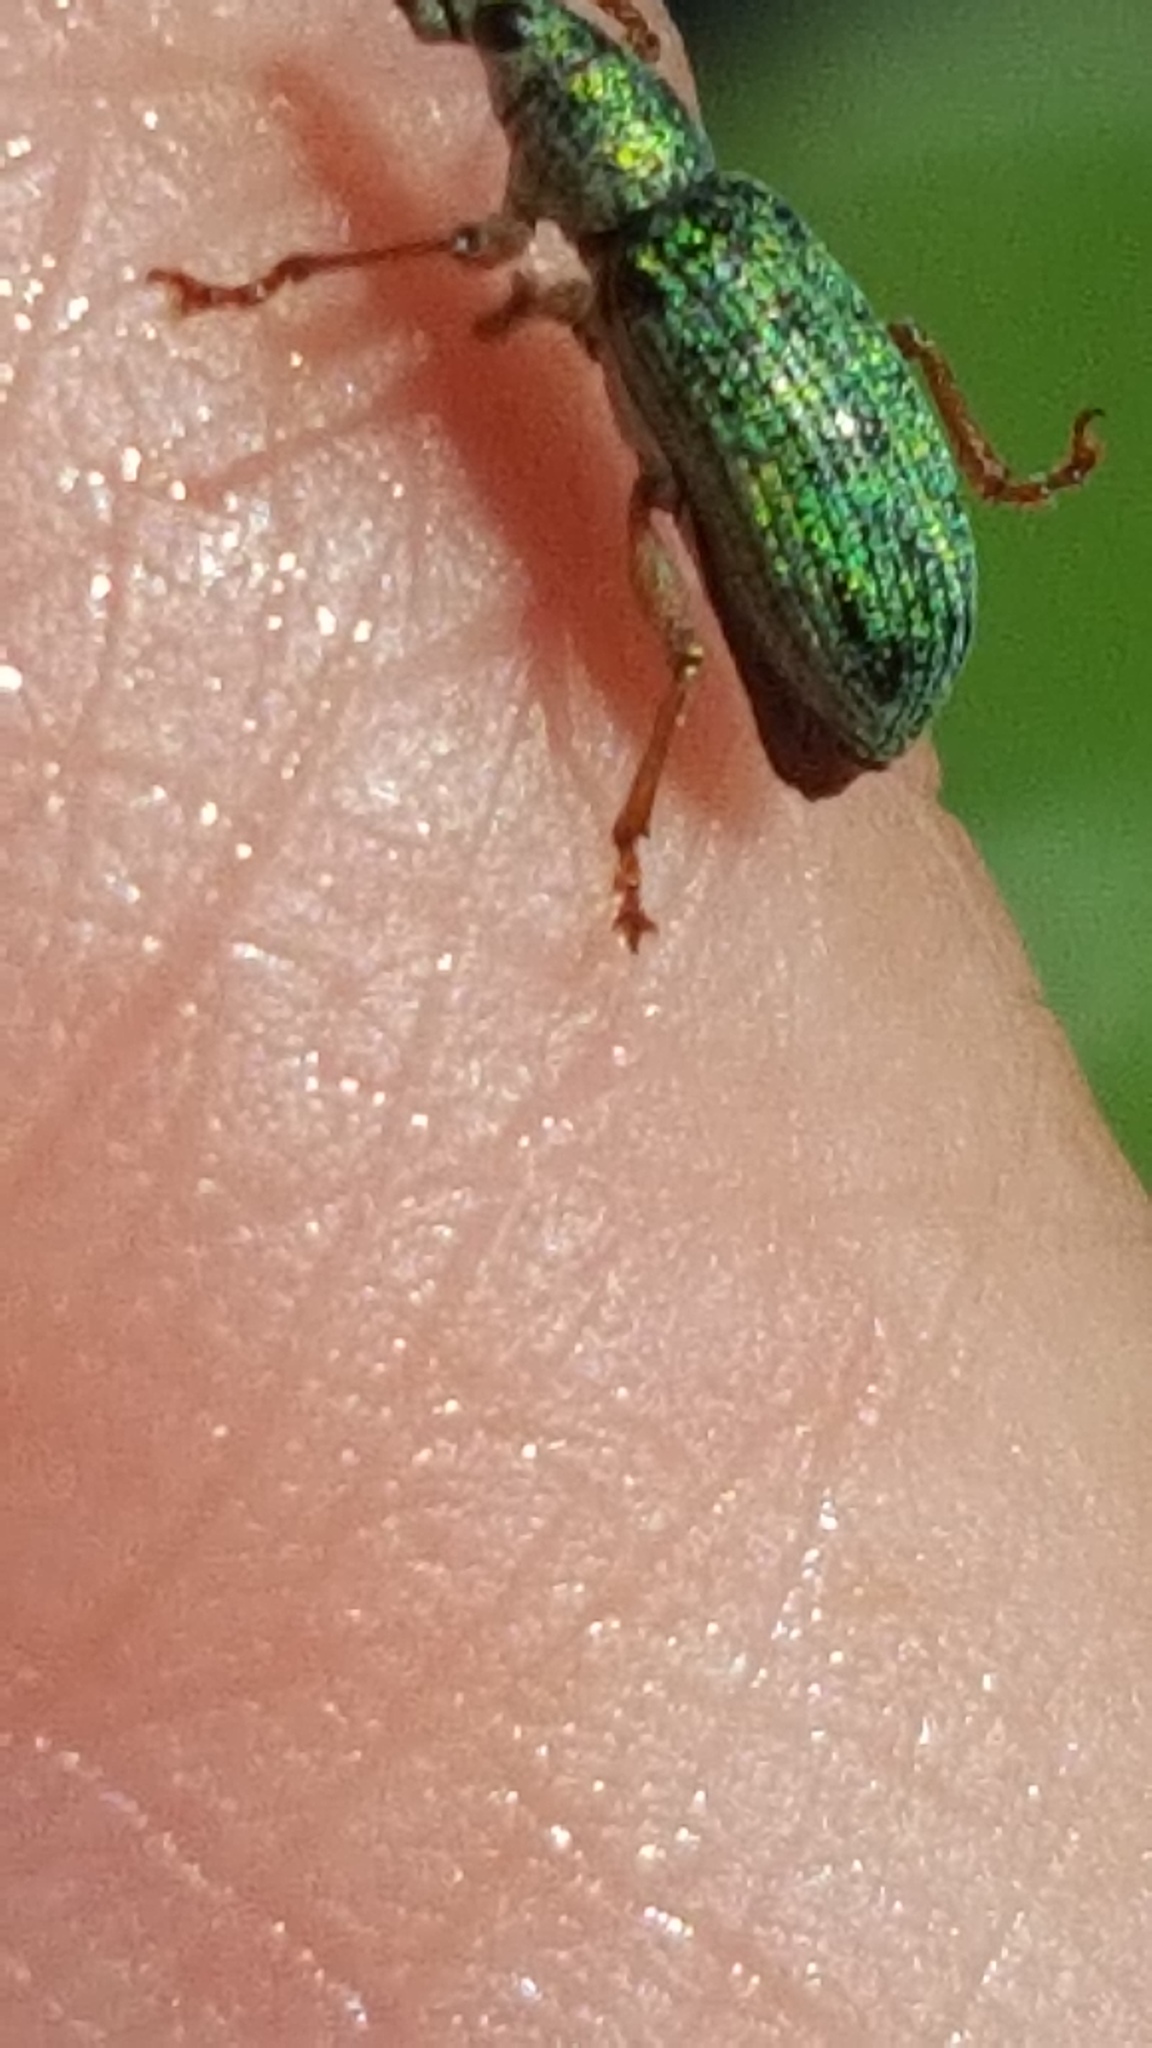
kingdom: Animalia
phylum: Arthropoda
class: Insecta
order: Coleoptera
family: Curculionidae
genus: Polydrusus
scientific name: Polydrusus formosus
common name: Weevil
